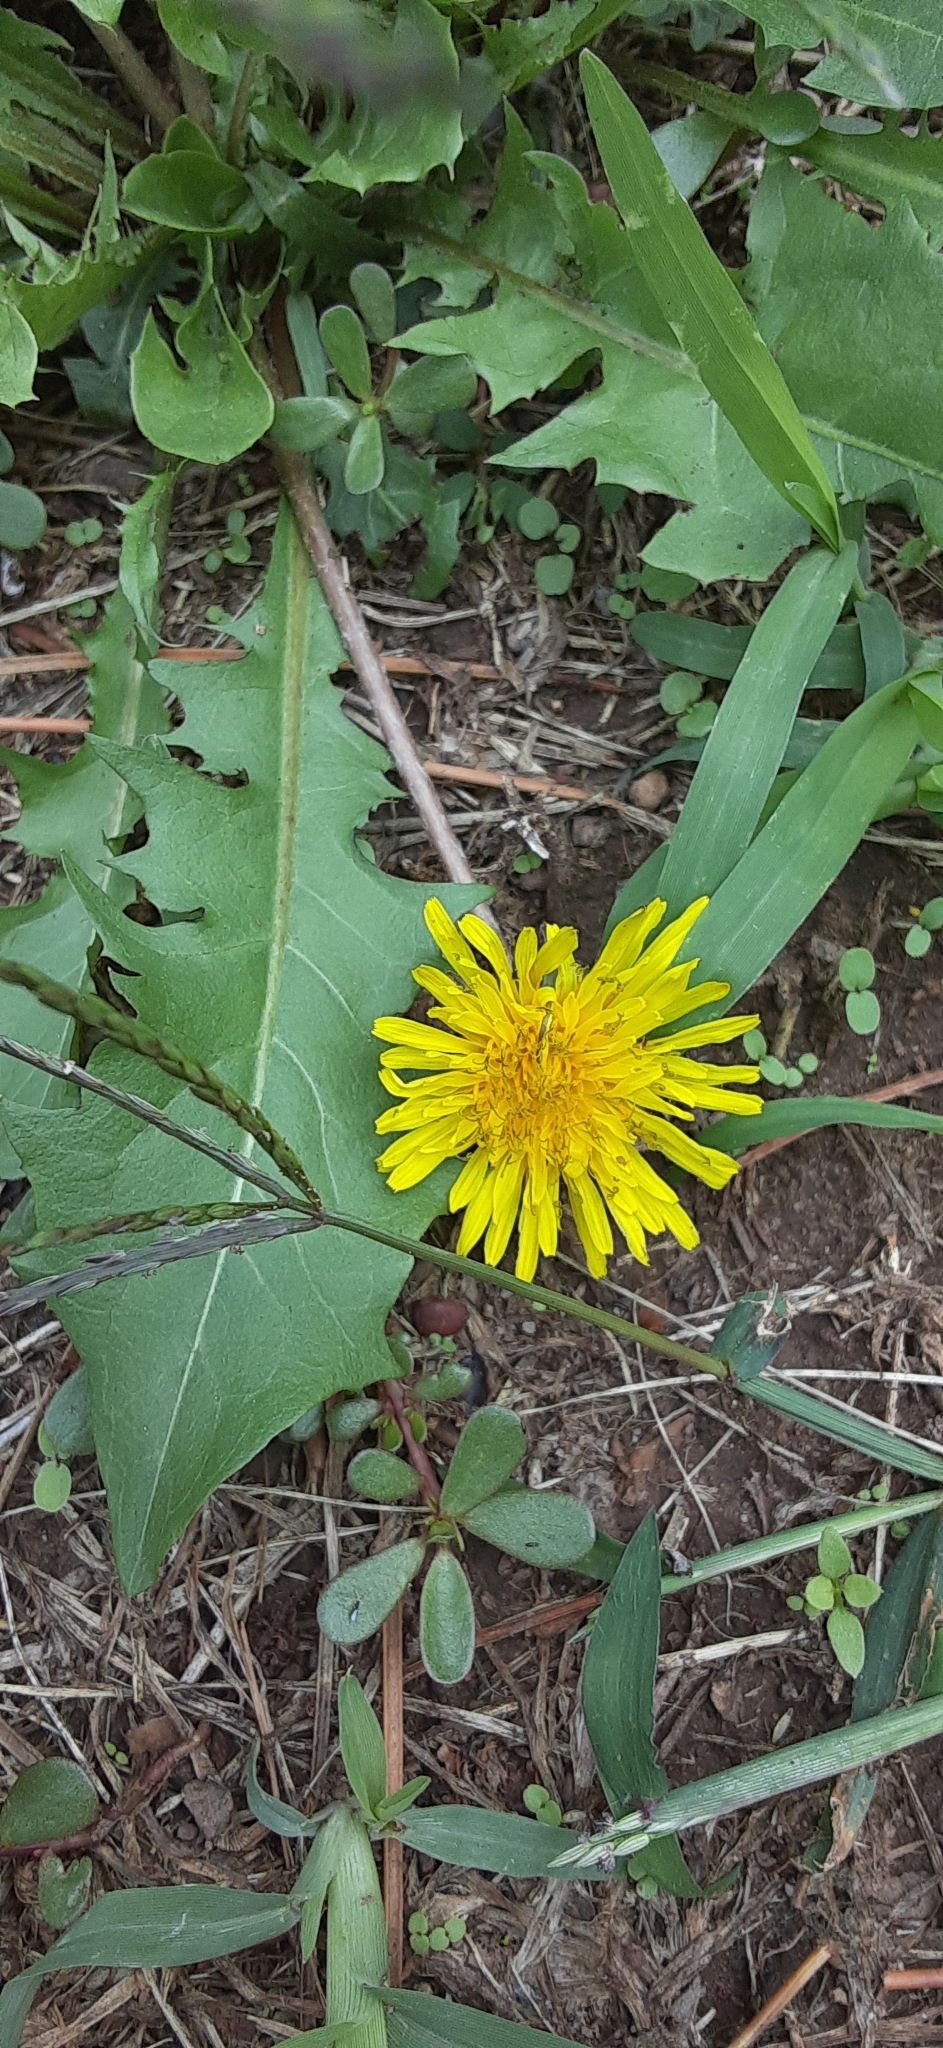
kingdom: Plantae
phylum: Tracheophyta
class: Magnoliopsida
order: Asterales
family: Asteraceae
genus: Taraxacum
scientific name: Taraxacum
